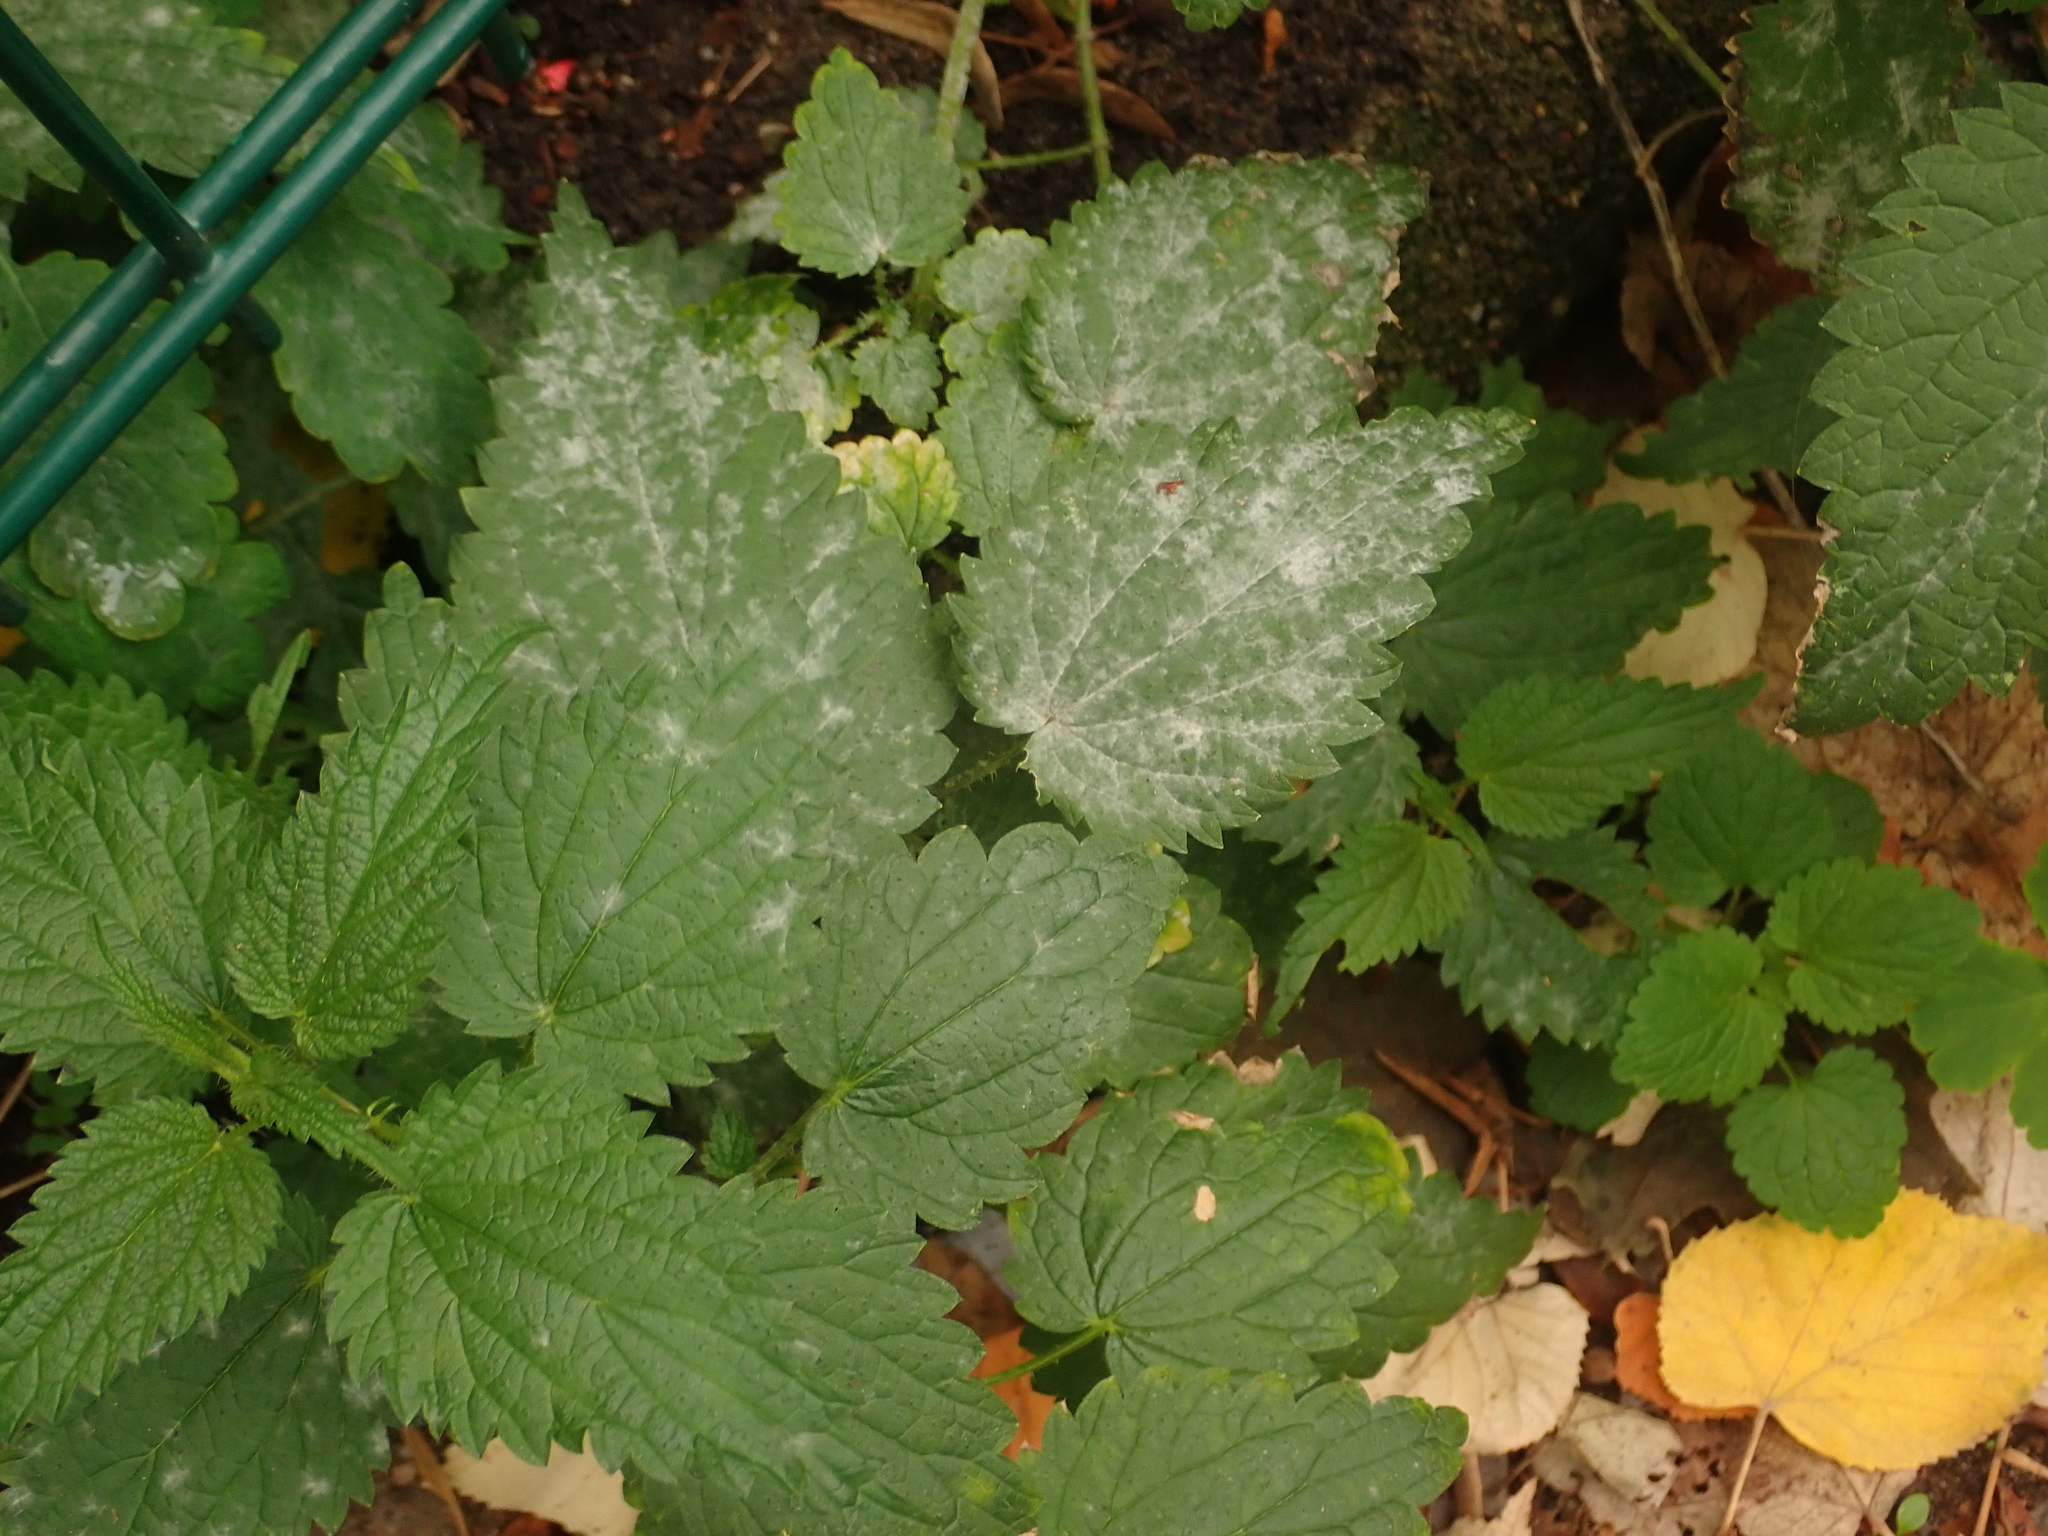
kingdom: Fungi
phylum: Ascomycota
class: Leotiomycetes
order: Helotiales
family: Erysiphaceae
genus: Erysiphe
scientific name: Erysiphe urticae
